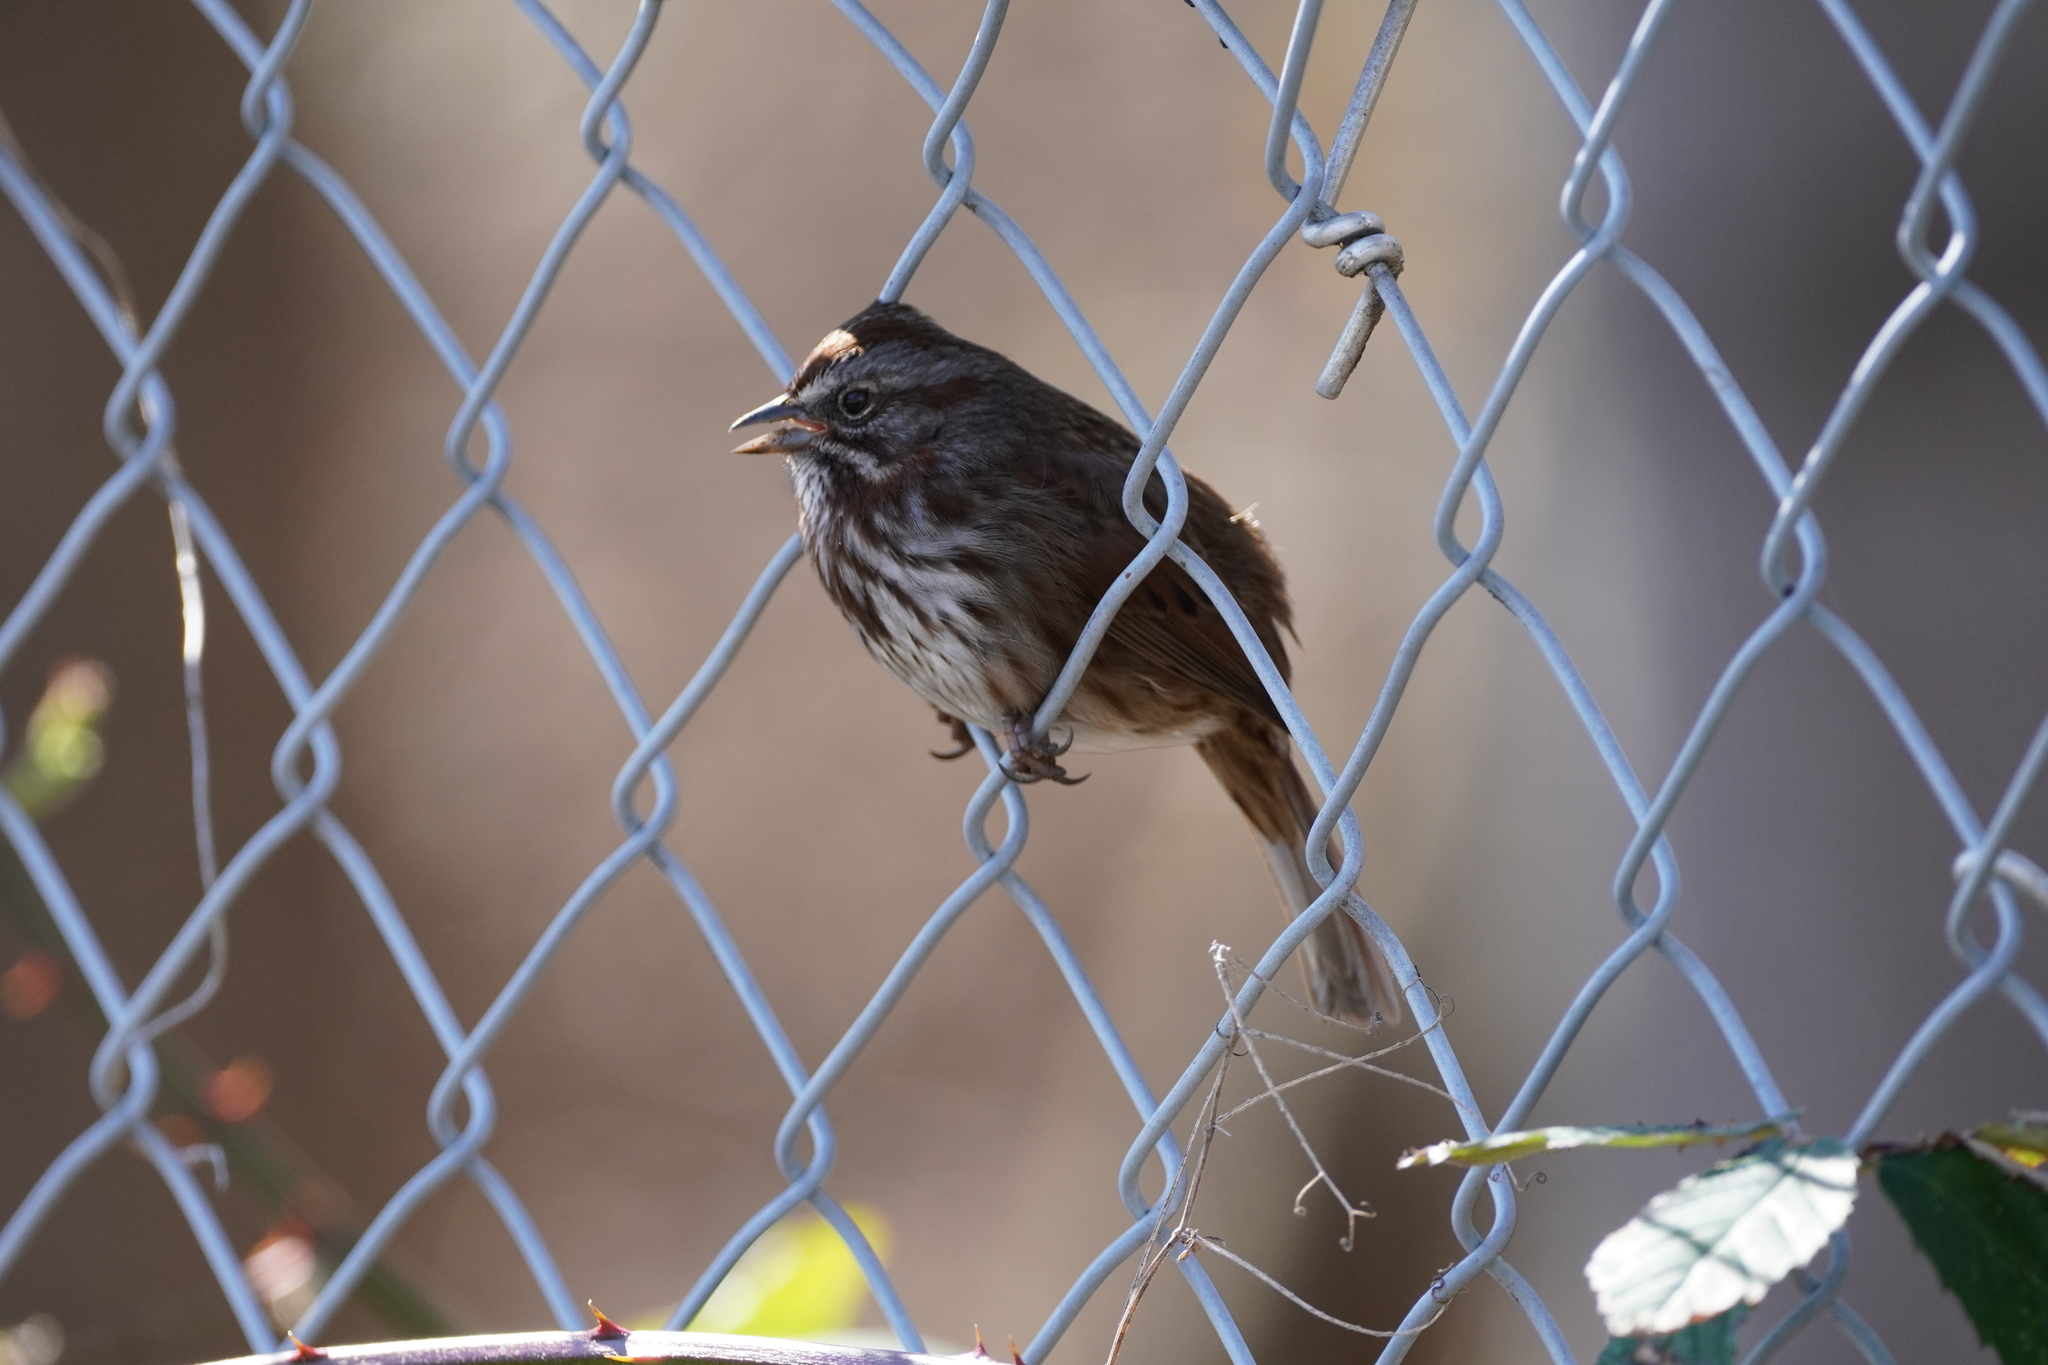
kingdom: Animalia
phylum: Chordata
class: Aves
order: Passeriformes
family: Passerellidae
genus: Melospiza
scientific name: Melospiza melodia
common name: Song sparrow
